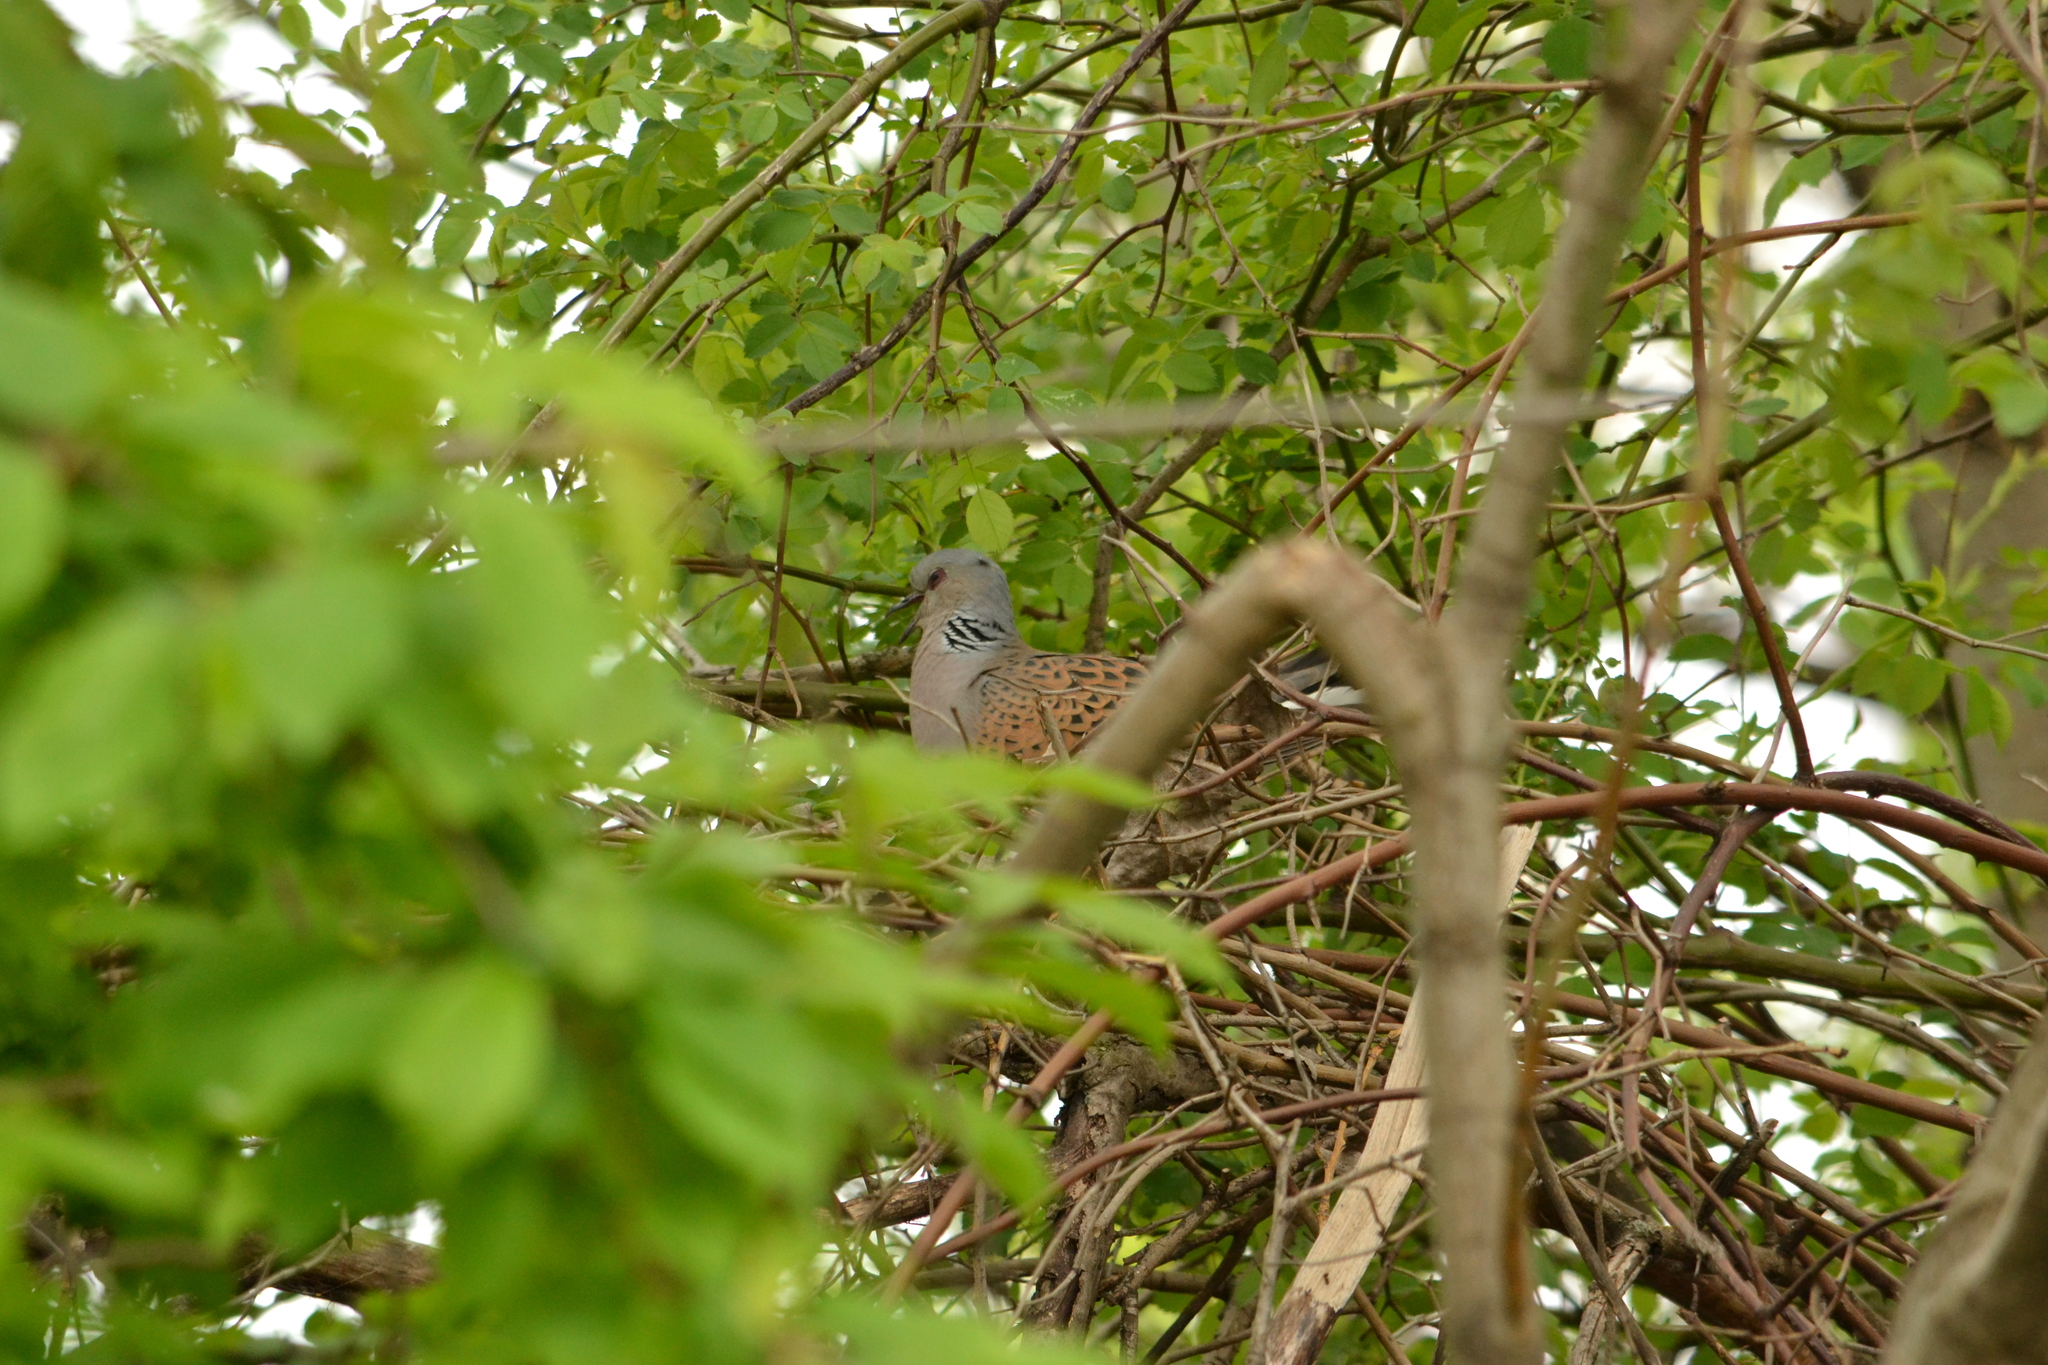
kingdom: Animalia
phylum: Chordata
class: Aves
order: Columbiformes
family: Columbidae
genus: Streptopelia
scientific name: Streptopelia turtur
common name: European turtle dove
